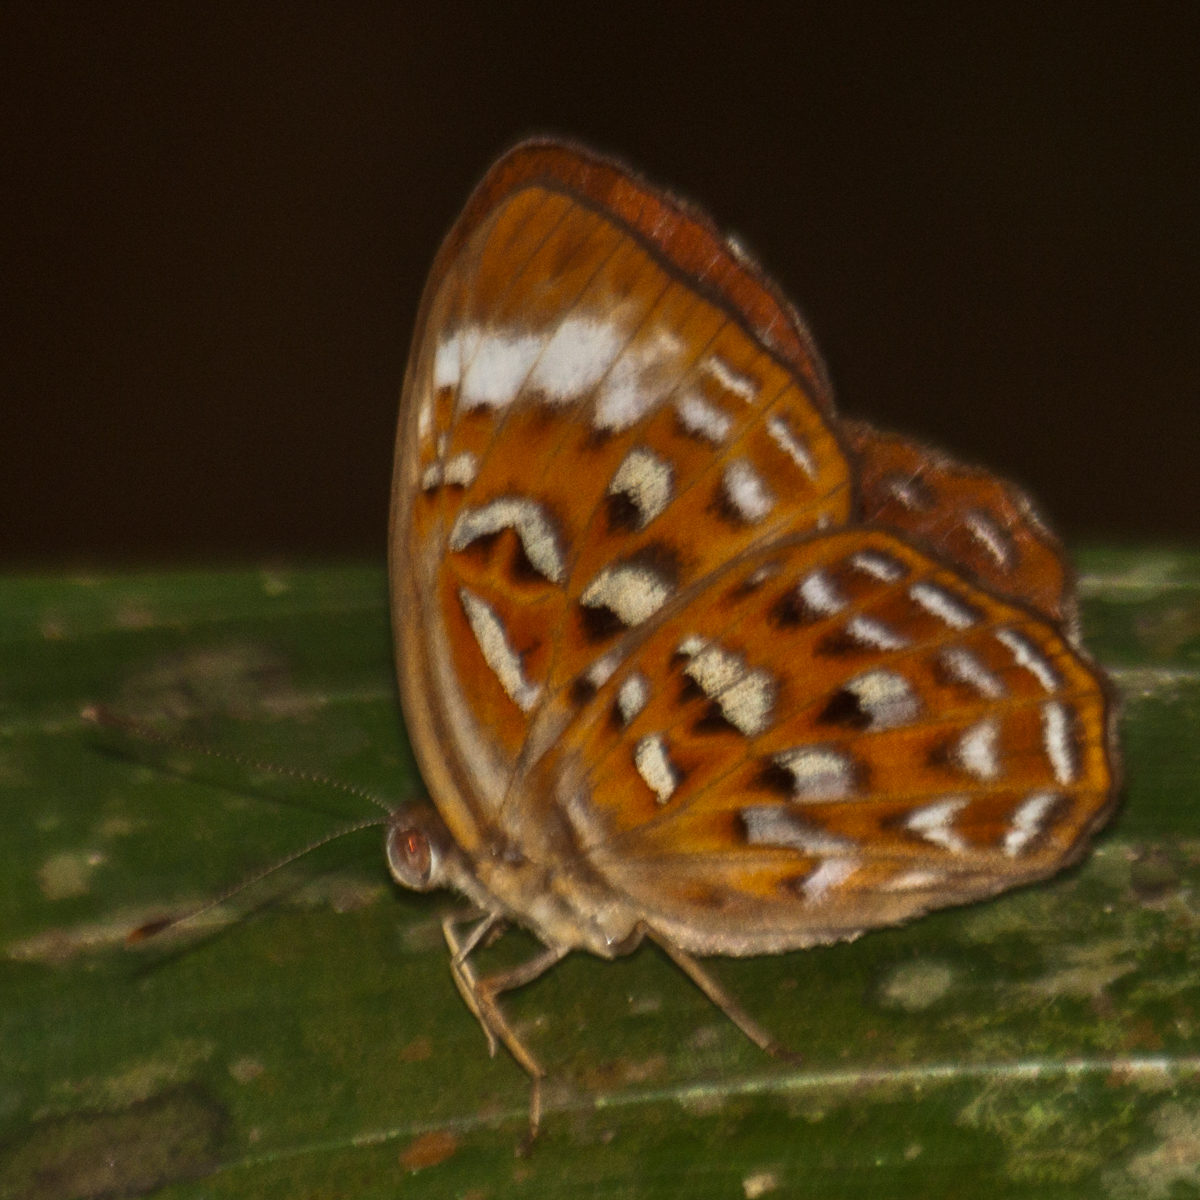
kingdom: Animalia
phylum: Arthropoda
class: Insecta
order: Lepidoptera
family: Erebidae
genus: Dysschema
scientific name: Dysschema
